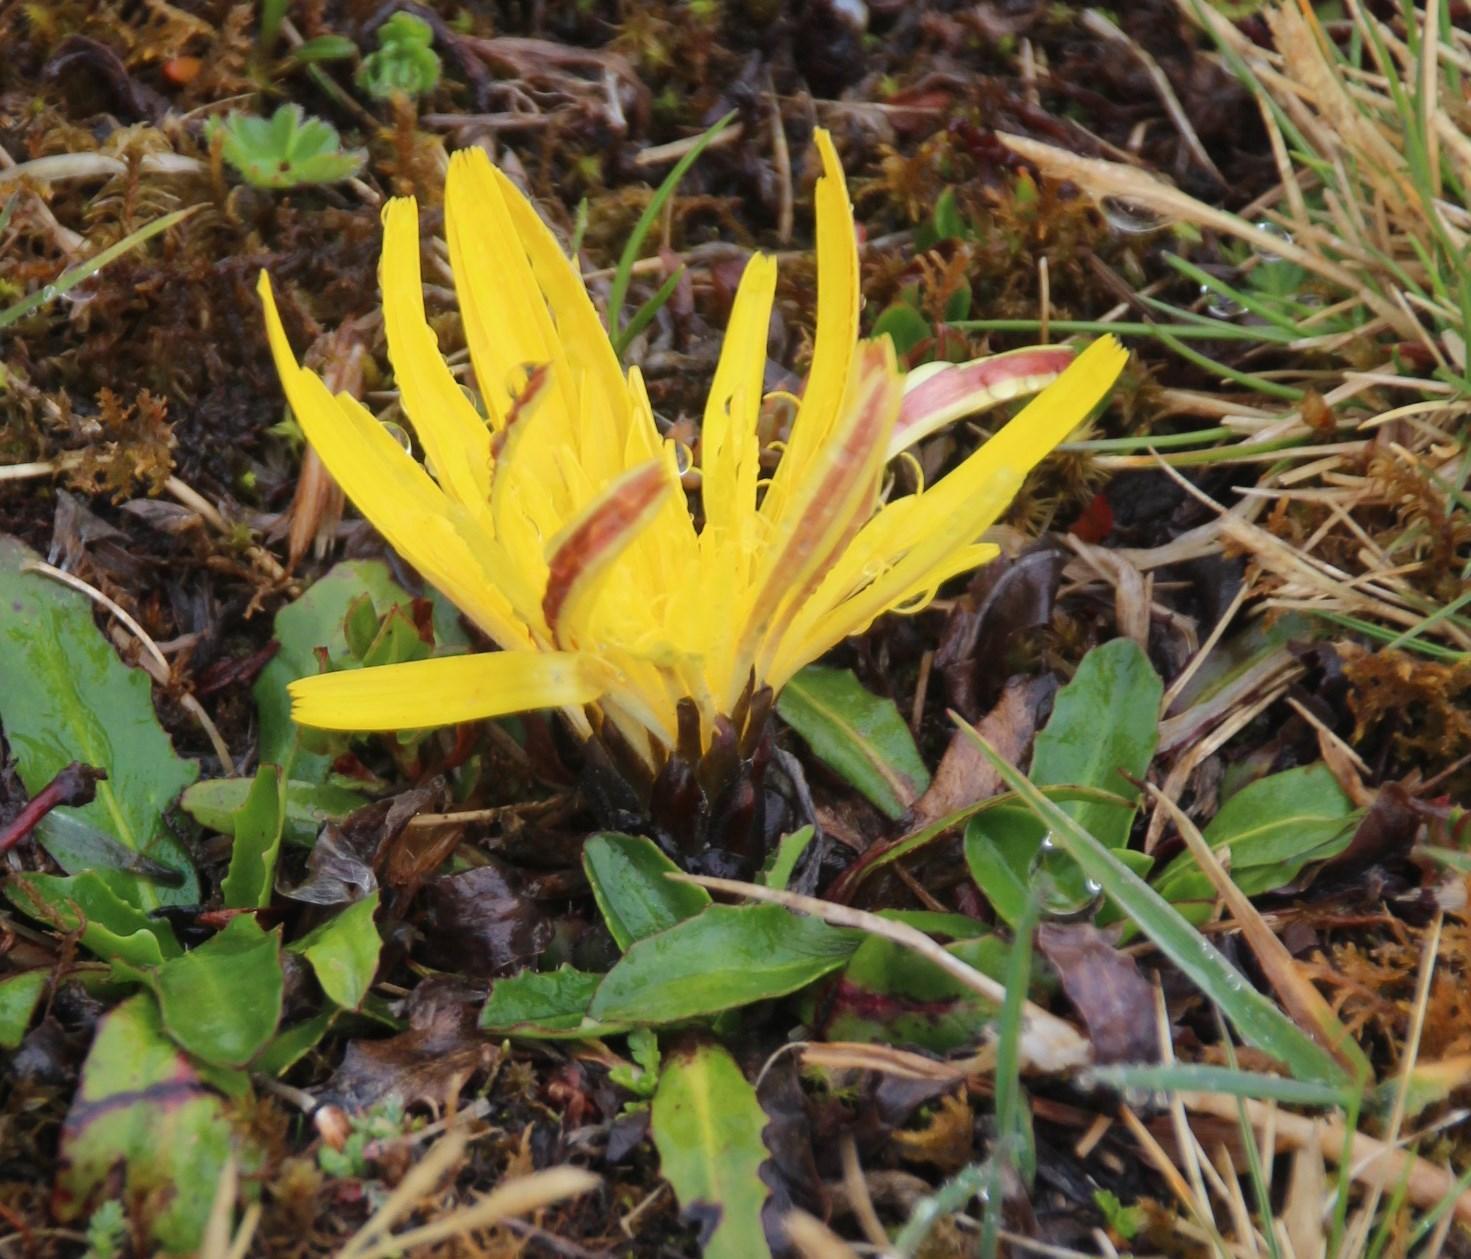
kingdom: Plantae
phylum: Tracheophyta
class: Magnoliopsida
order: Asterales
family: Asteraceae
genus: Hypochaeris
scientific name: Hypochaeris sessiliflora
